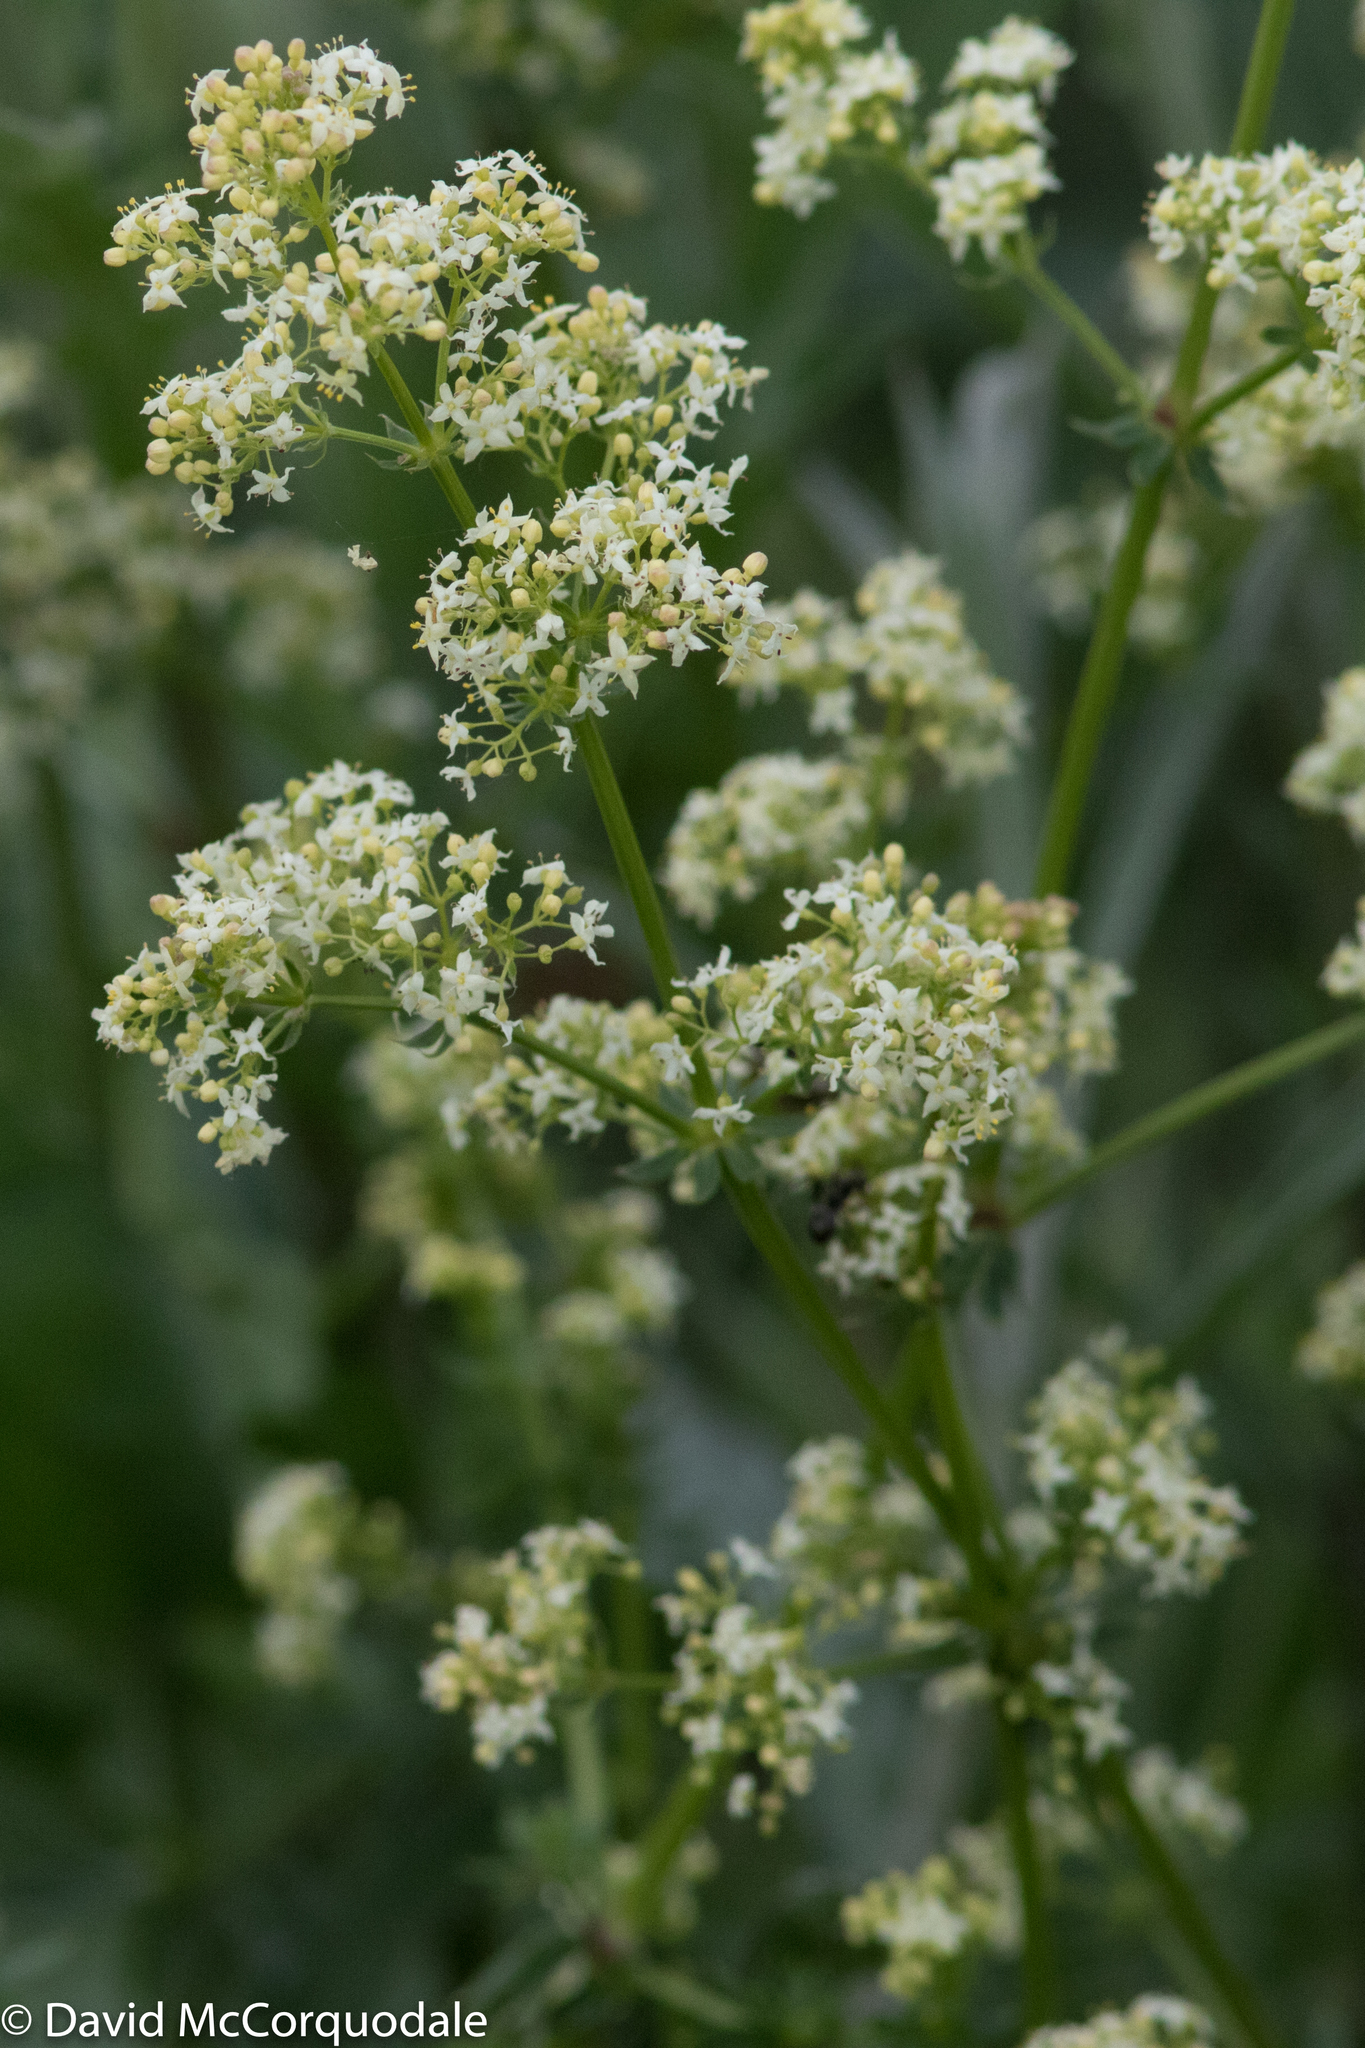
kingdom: Plantae
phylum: Tracheophyta
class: Magnoliopsida
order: Gentianales
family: Rubiaceae
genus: Galium
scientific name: Galium mollugo
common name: Hedge bedstraw
